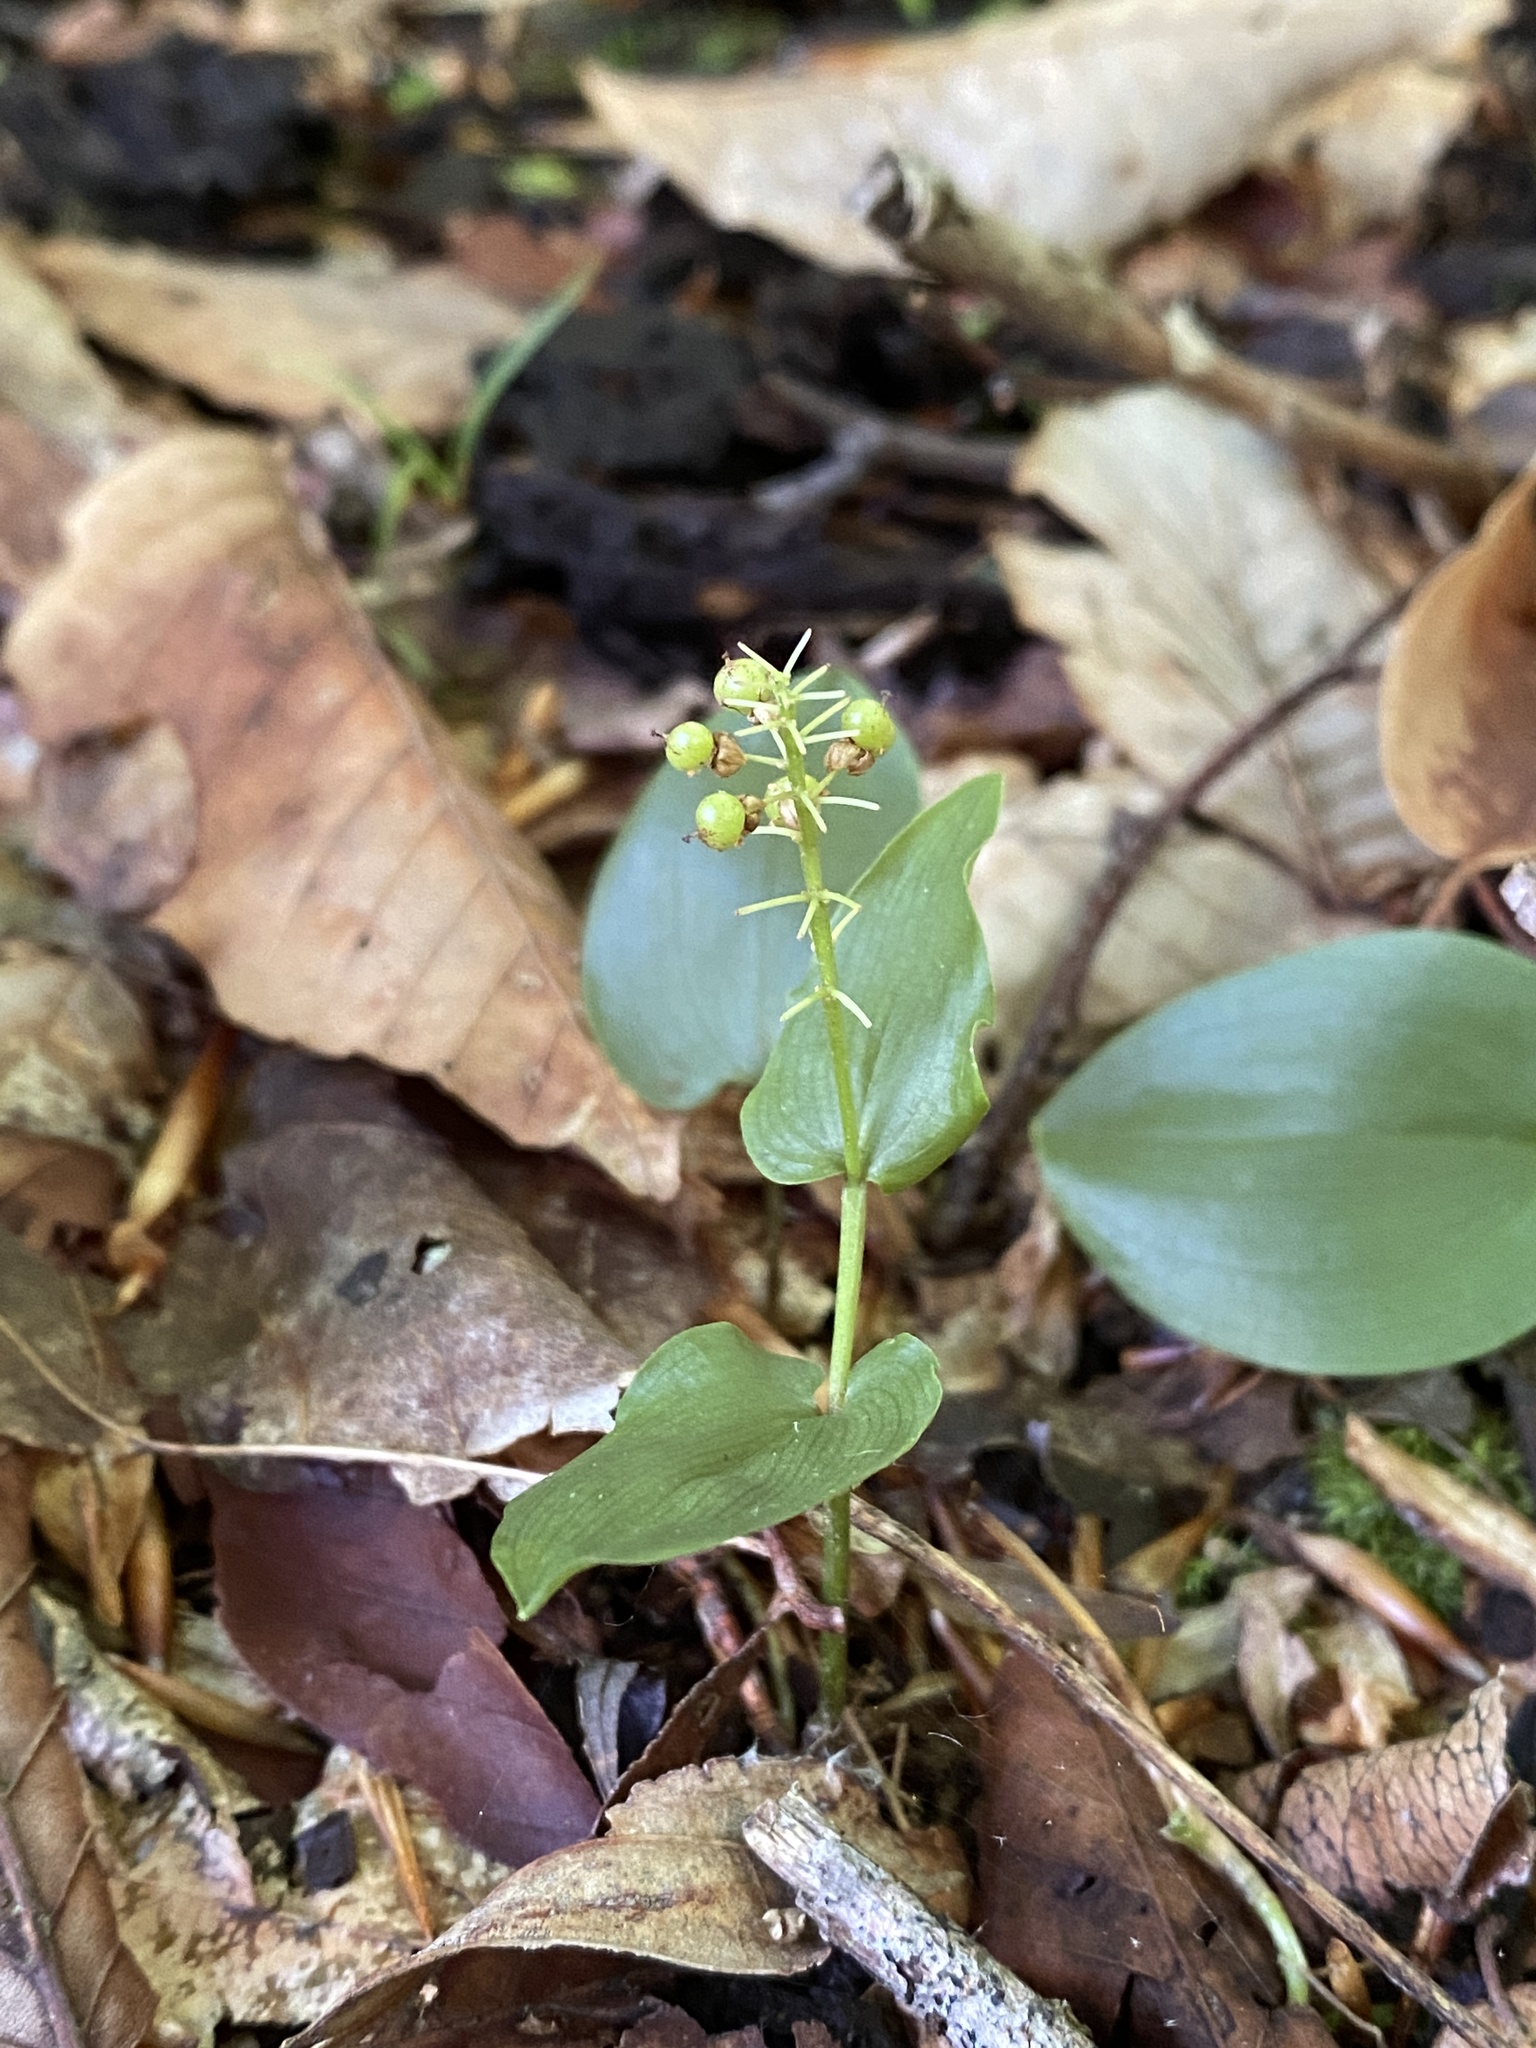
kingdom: Plantae
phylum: Tracheophyta
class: Liliopsida
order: Asparagales
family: Asparagaceae
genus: Maianthemum
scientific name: Maianthemum canadense
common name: False lily-of-the-valley
